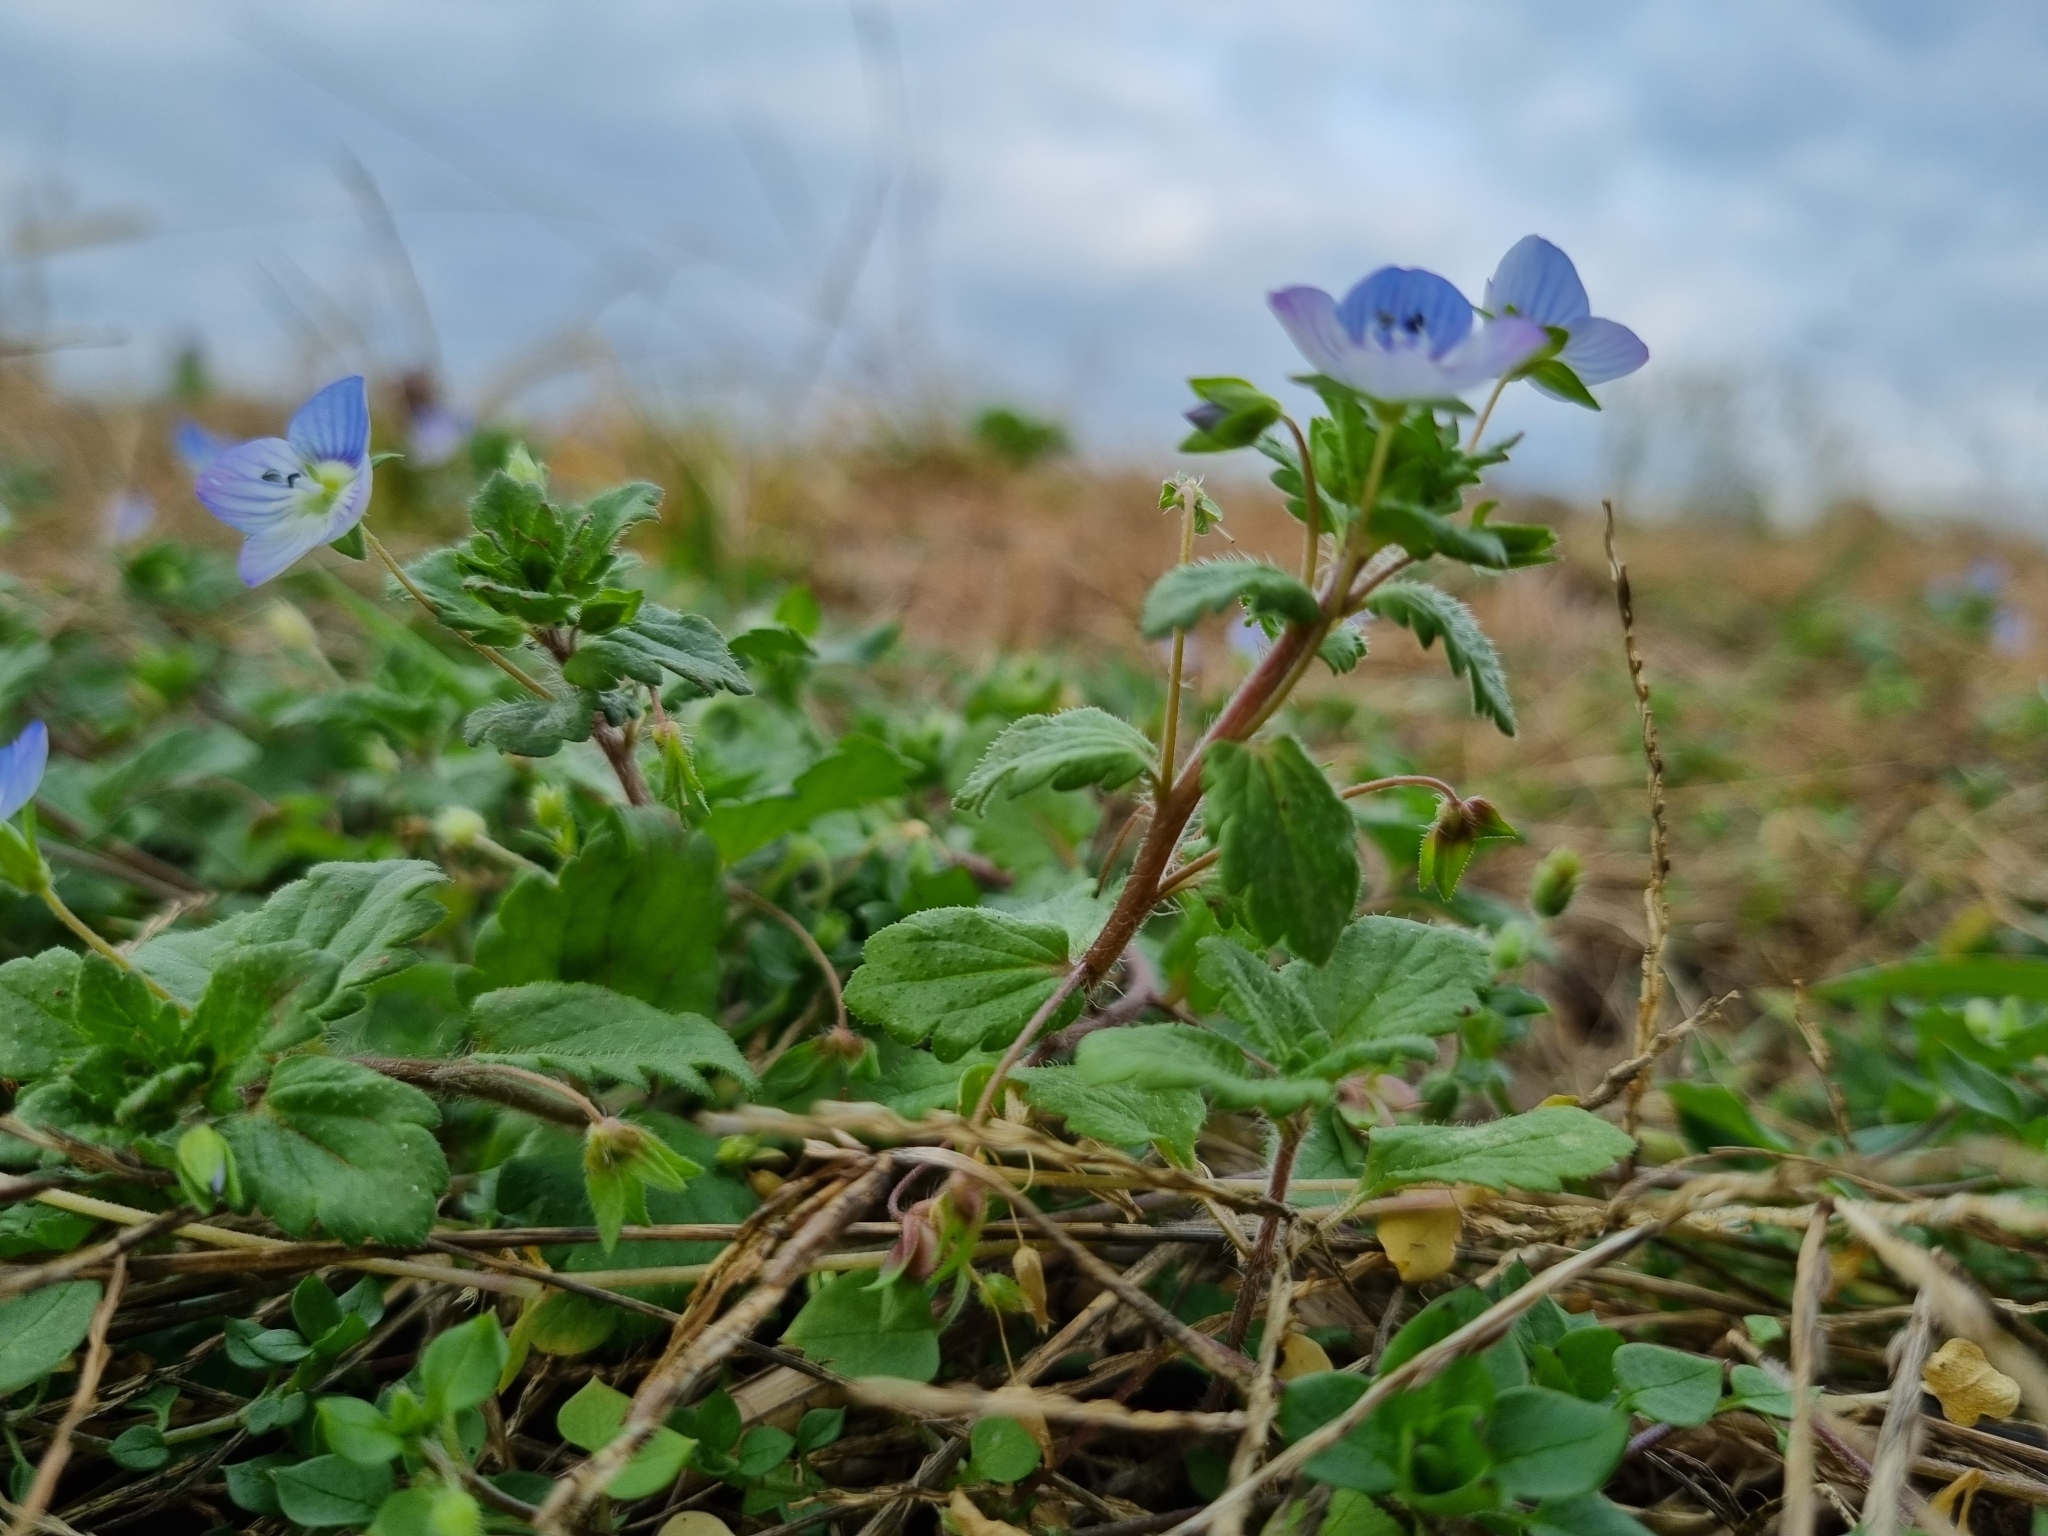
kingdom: Plantae
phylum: Tracheophyta
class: Magnoliopsida
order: Lamiales
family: Plantaginaceae
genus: Veronica
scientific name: Veronica persica
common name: Common field-speedwell
